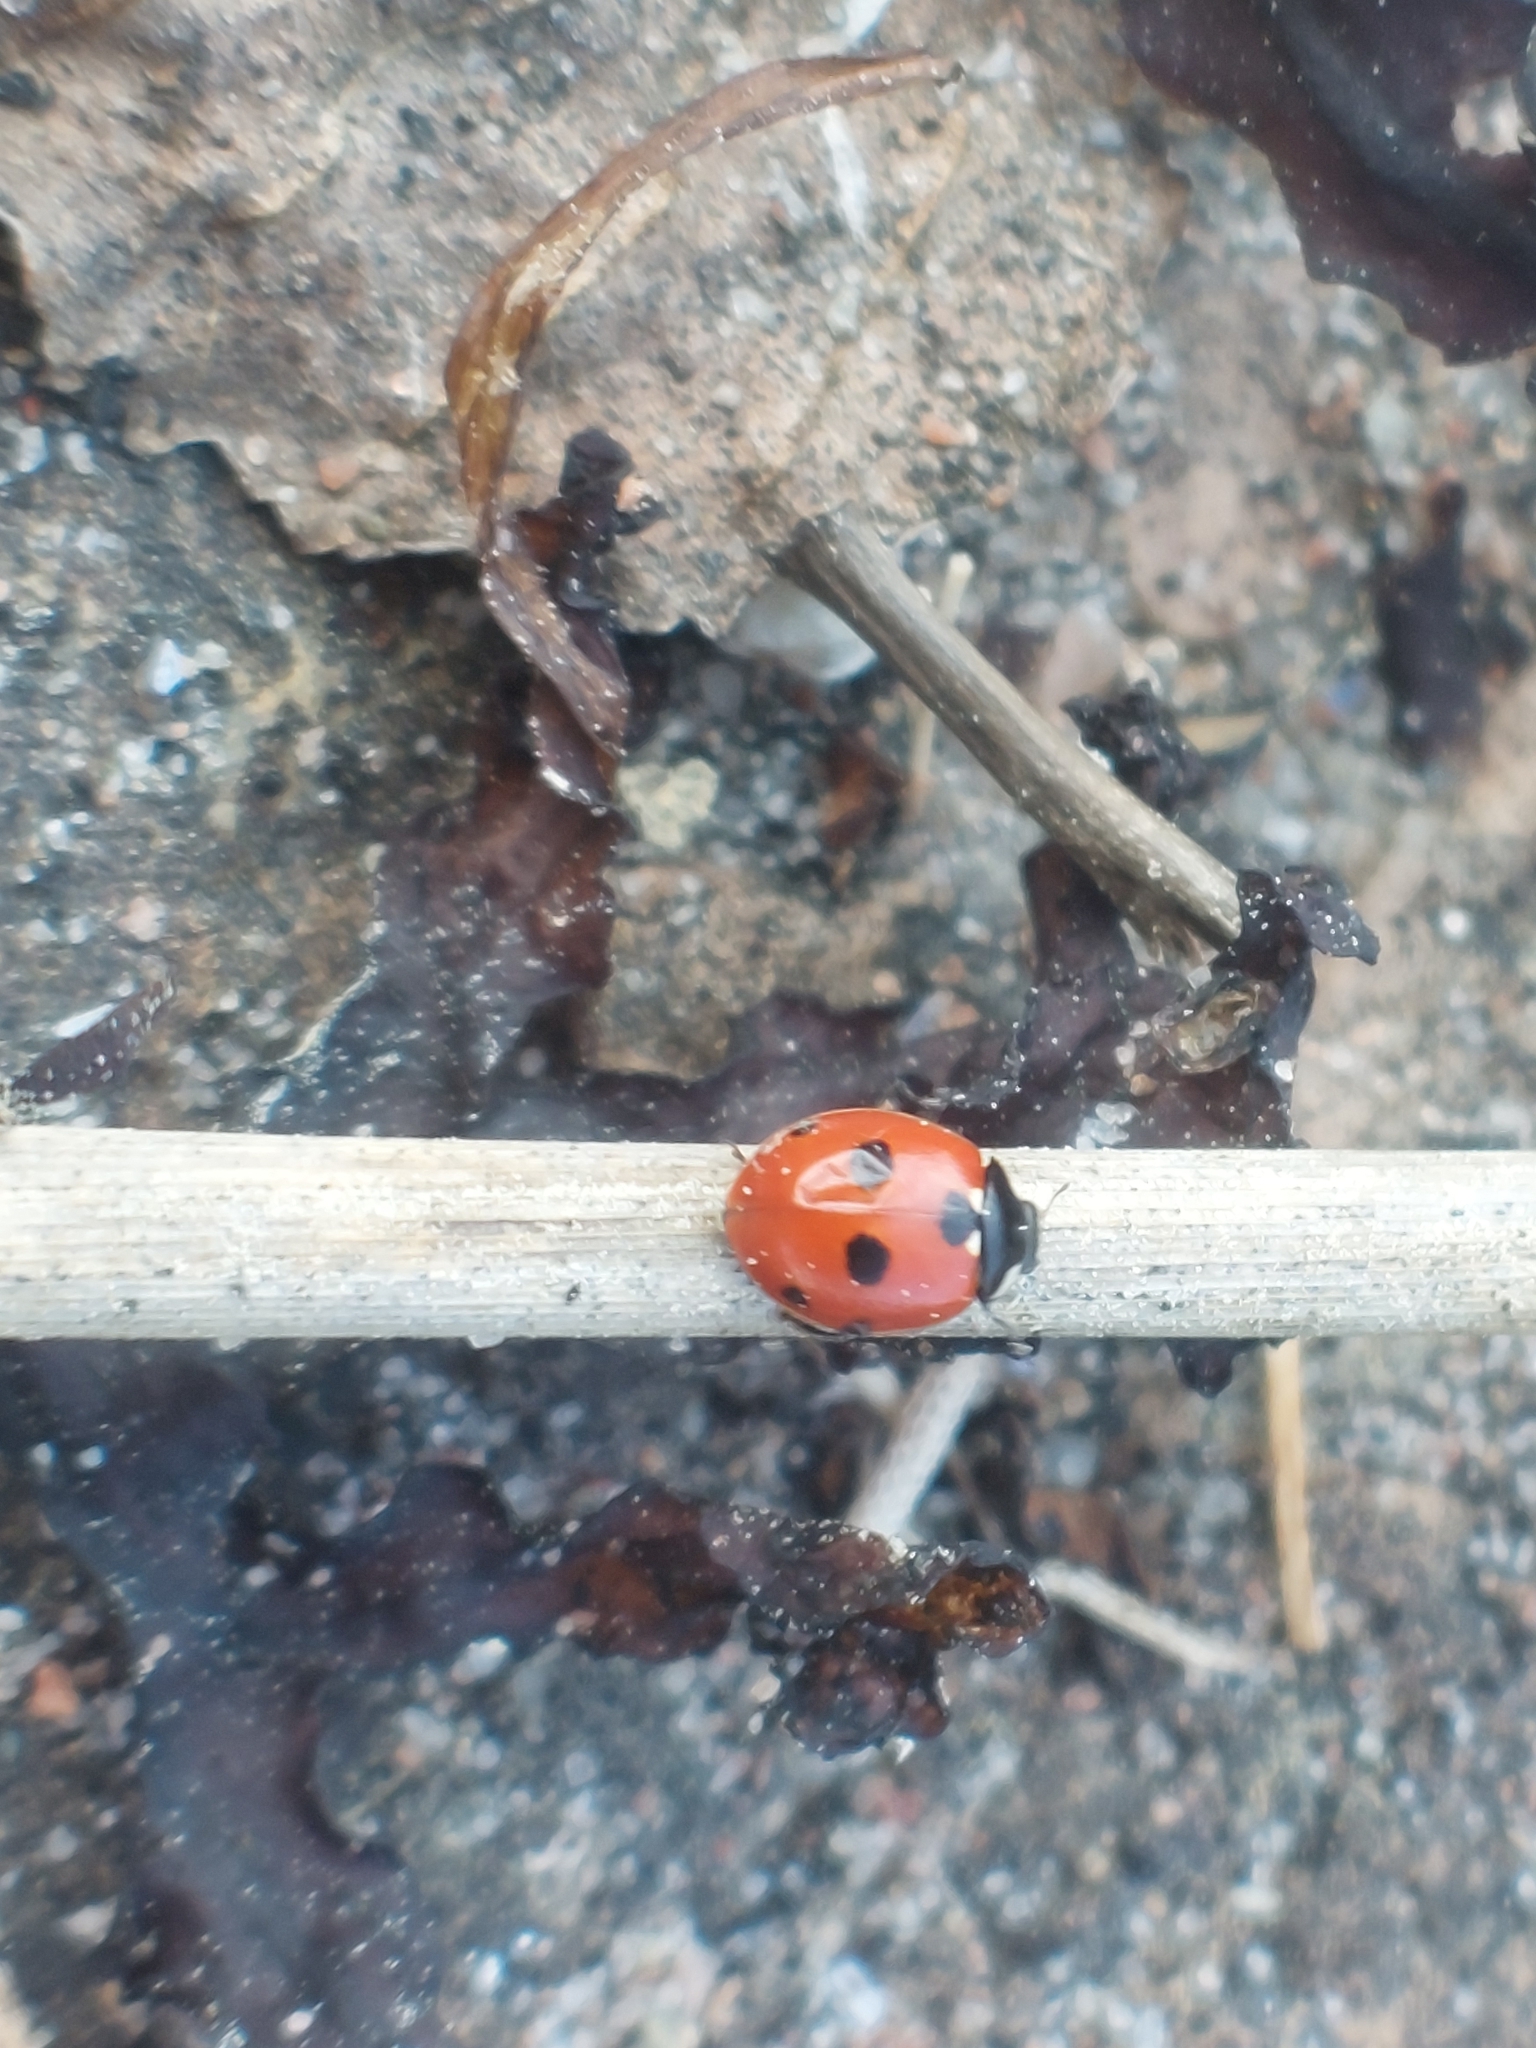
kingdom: Animalia
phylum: Arthropoda
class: Insecta
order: Coleoptera
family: Coccinellidae
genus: Coccinella
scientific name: Coccinella quinquepunctata
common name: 5-spot ladybird
